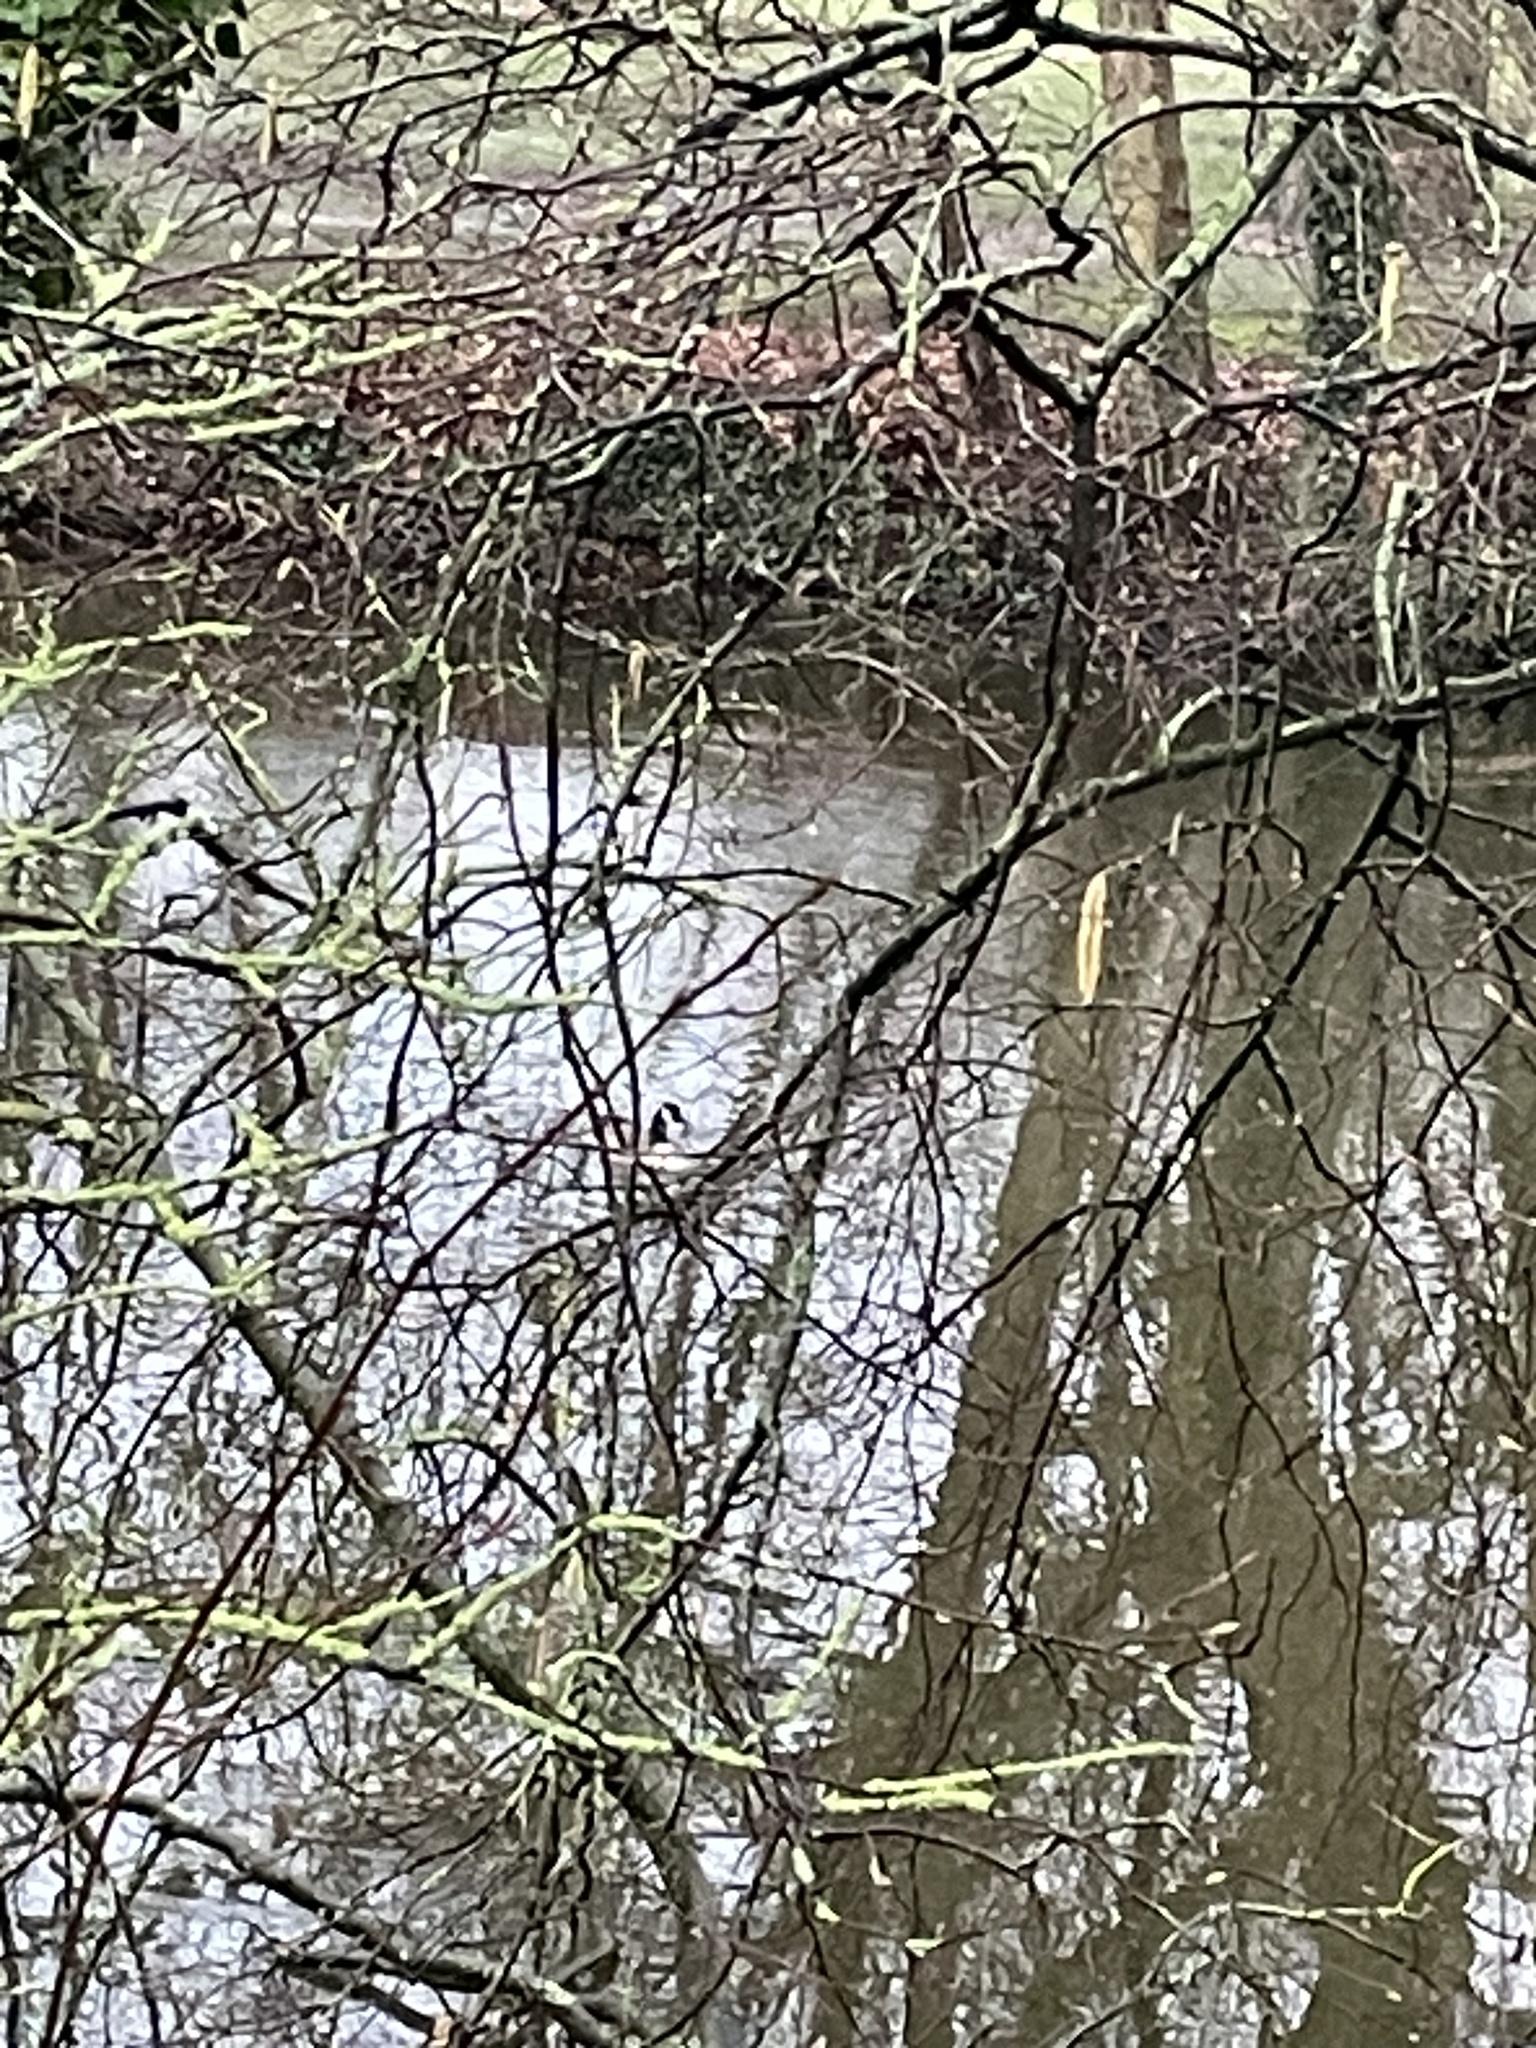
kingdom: Animalia
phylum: Chordata
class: Aves
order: Anseriformes
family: Anatidae
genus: Branta
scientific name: Branta canadensis
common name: Canada goose
